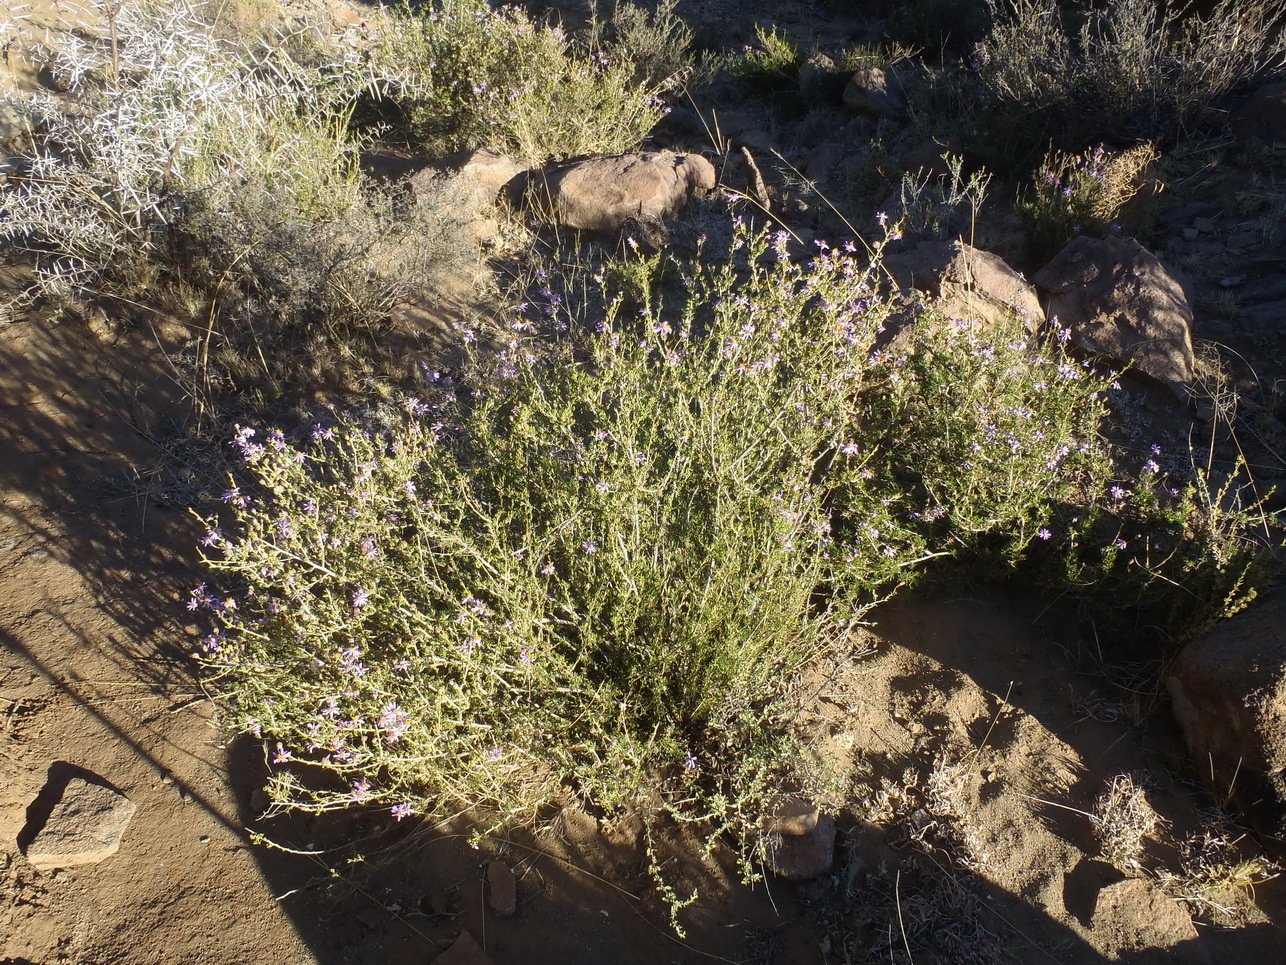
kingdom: Plantae
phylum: Tracheophyta
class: Magnoliopsida
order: Asterales
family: Asteraceae
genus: Felicia
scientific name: Felicia filifolia
